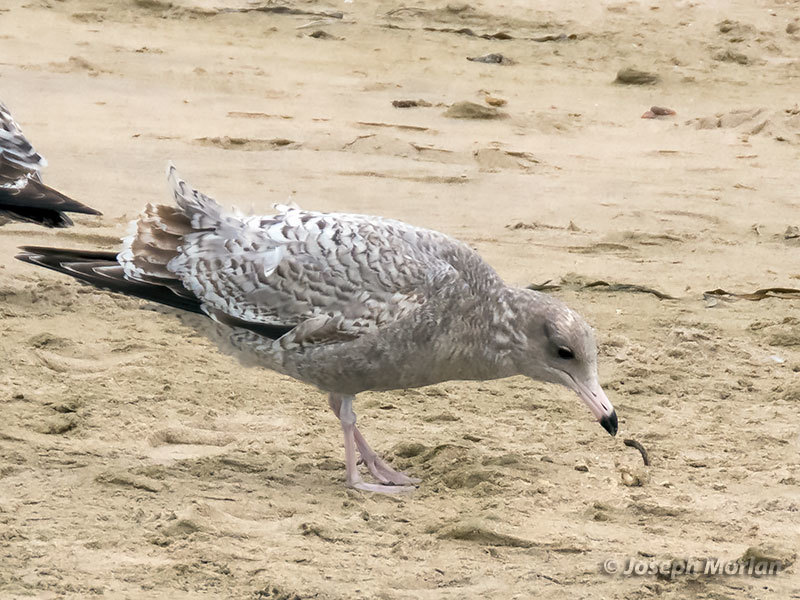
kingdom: Animalia
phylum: Chordata
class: Aves
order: Charadriiformes
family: Laridae
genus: Larus
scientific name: Larus californicus
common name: California gull
